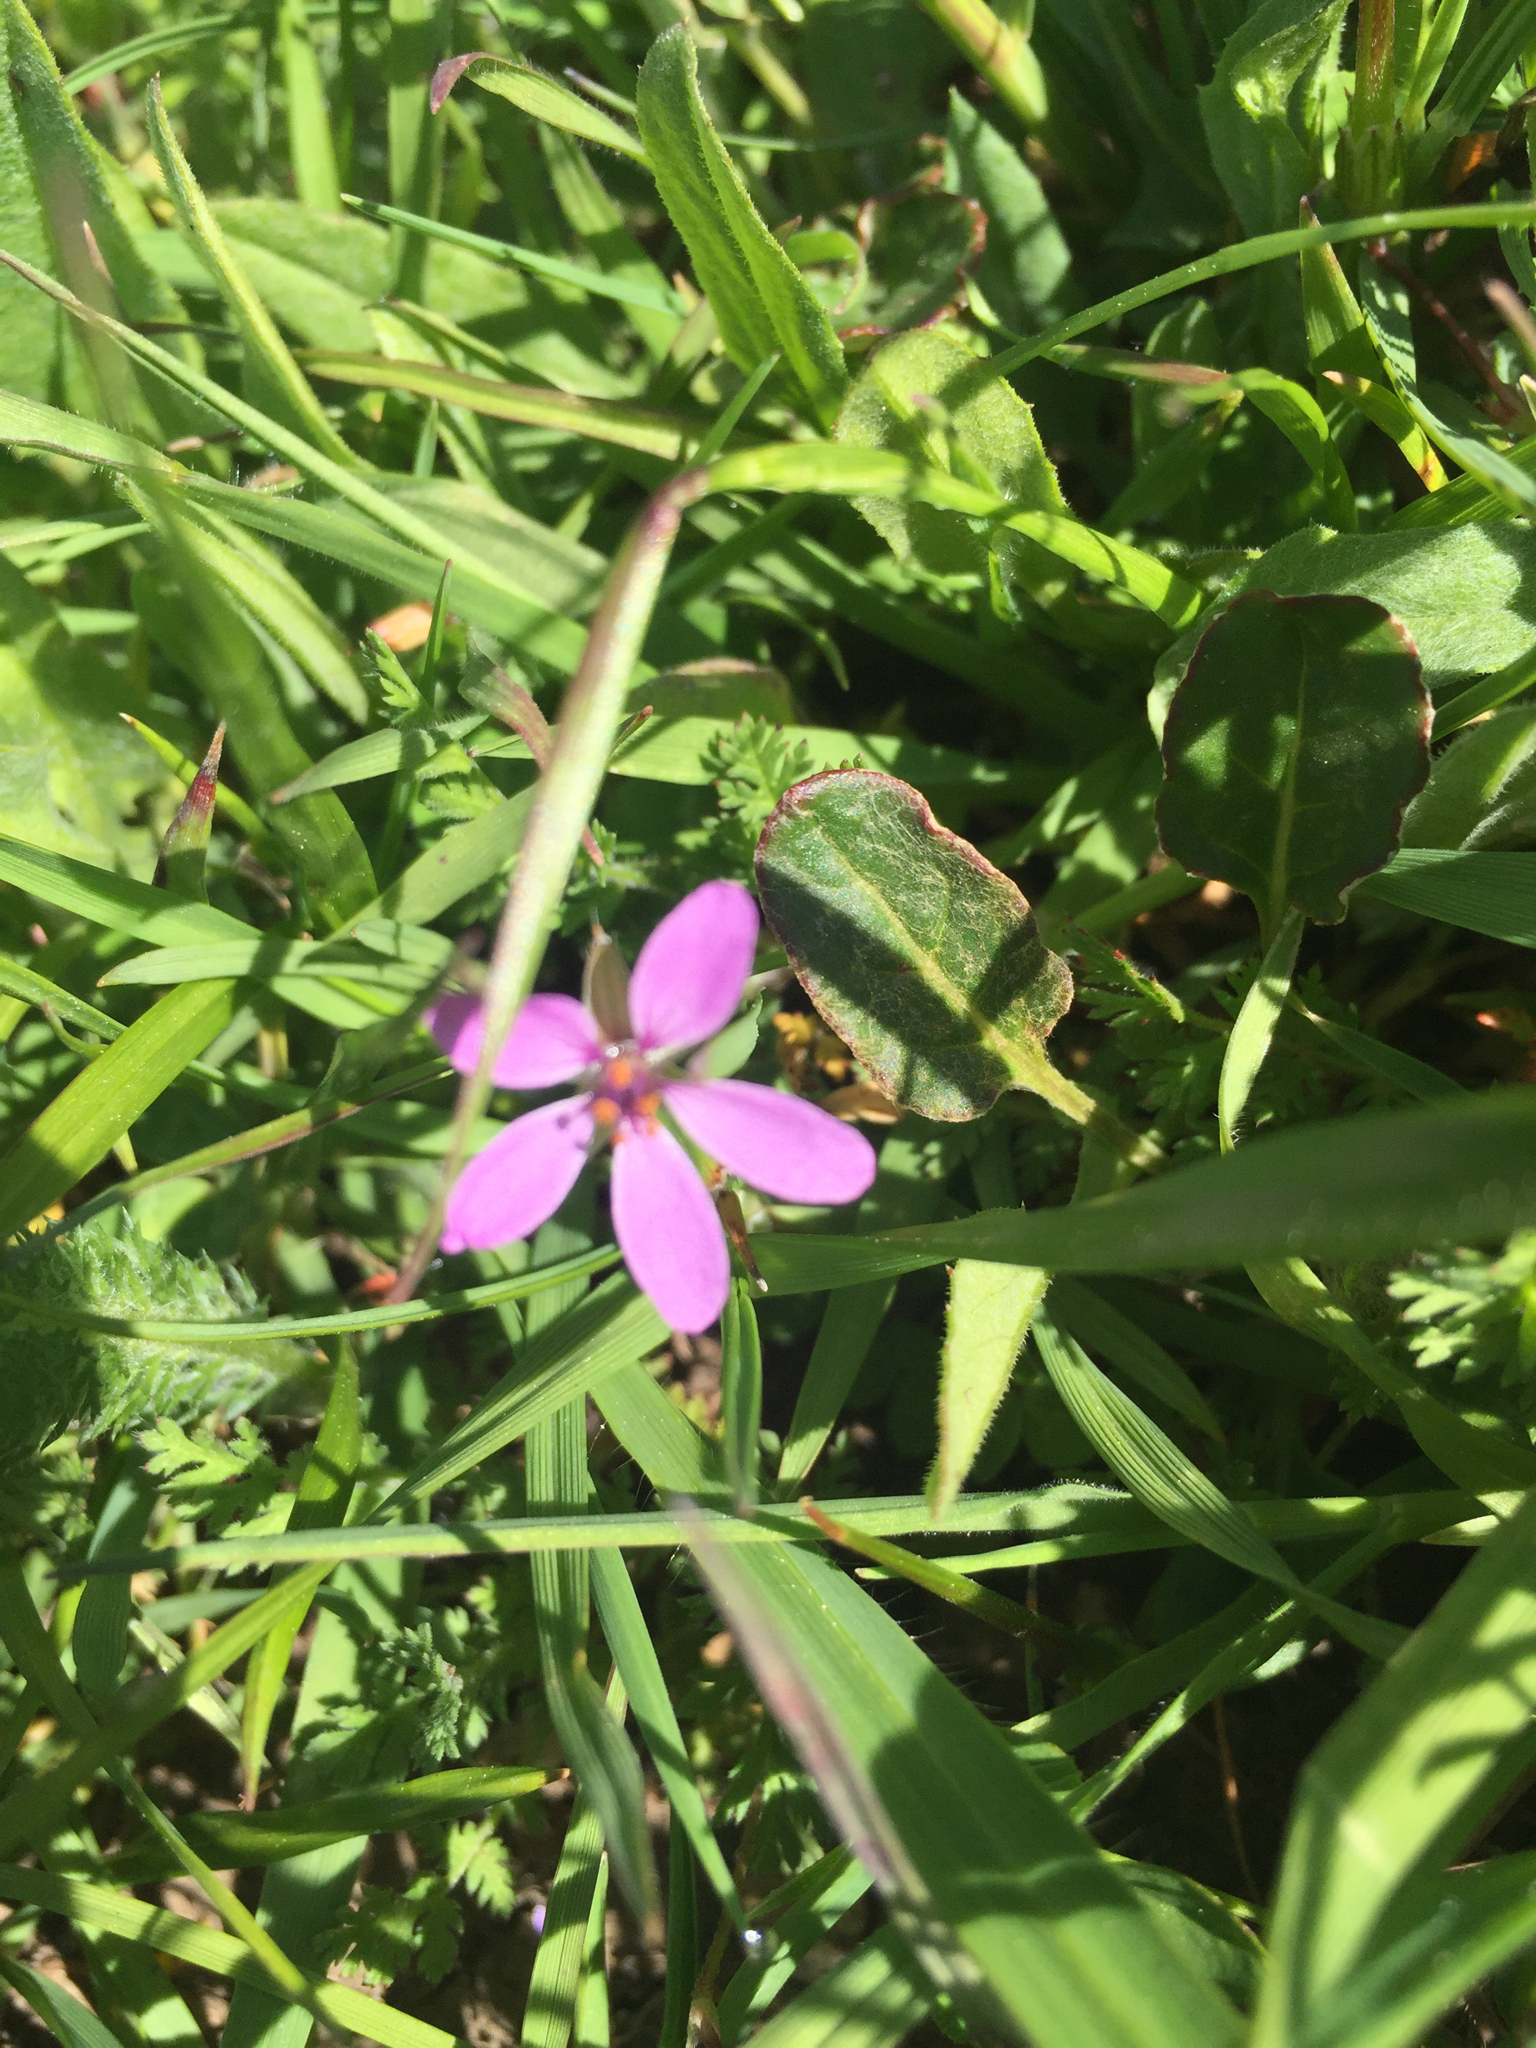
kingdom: Plantae
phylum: Tracheophyta
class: Magnoliopsida
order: Geraniales
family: Geraniaceae
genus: Erodium
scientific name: Erodium cicutarium
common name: Common stork's-bill
